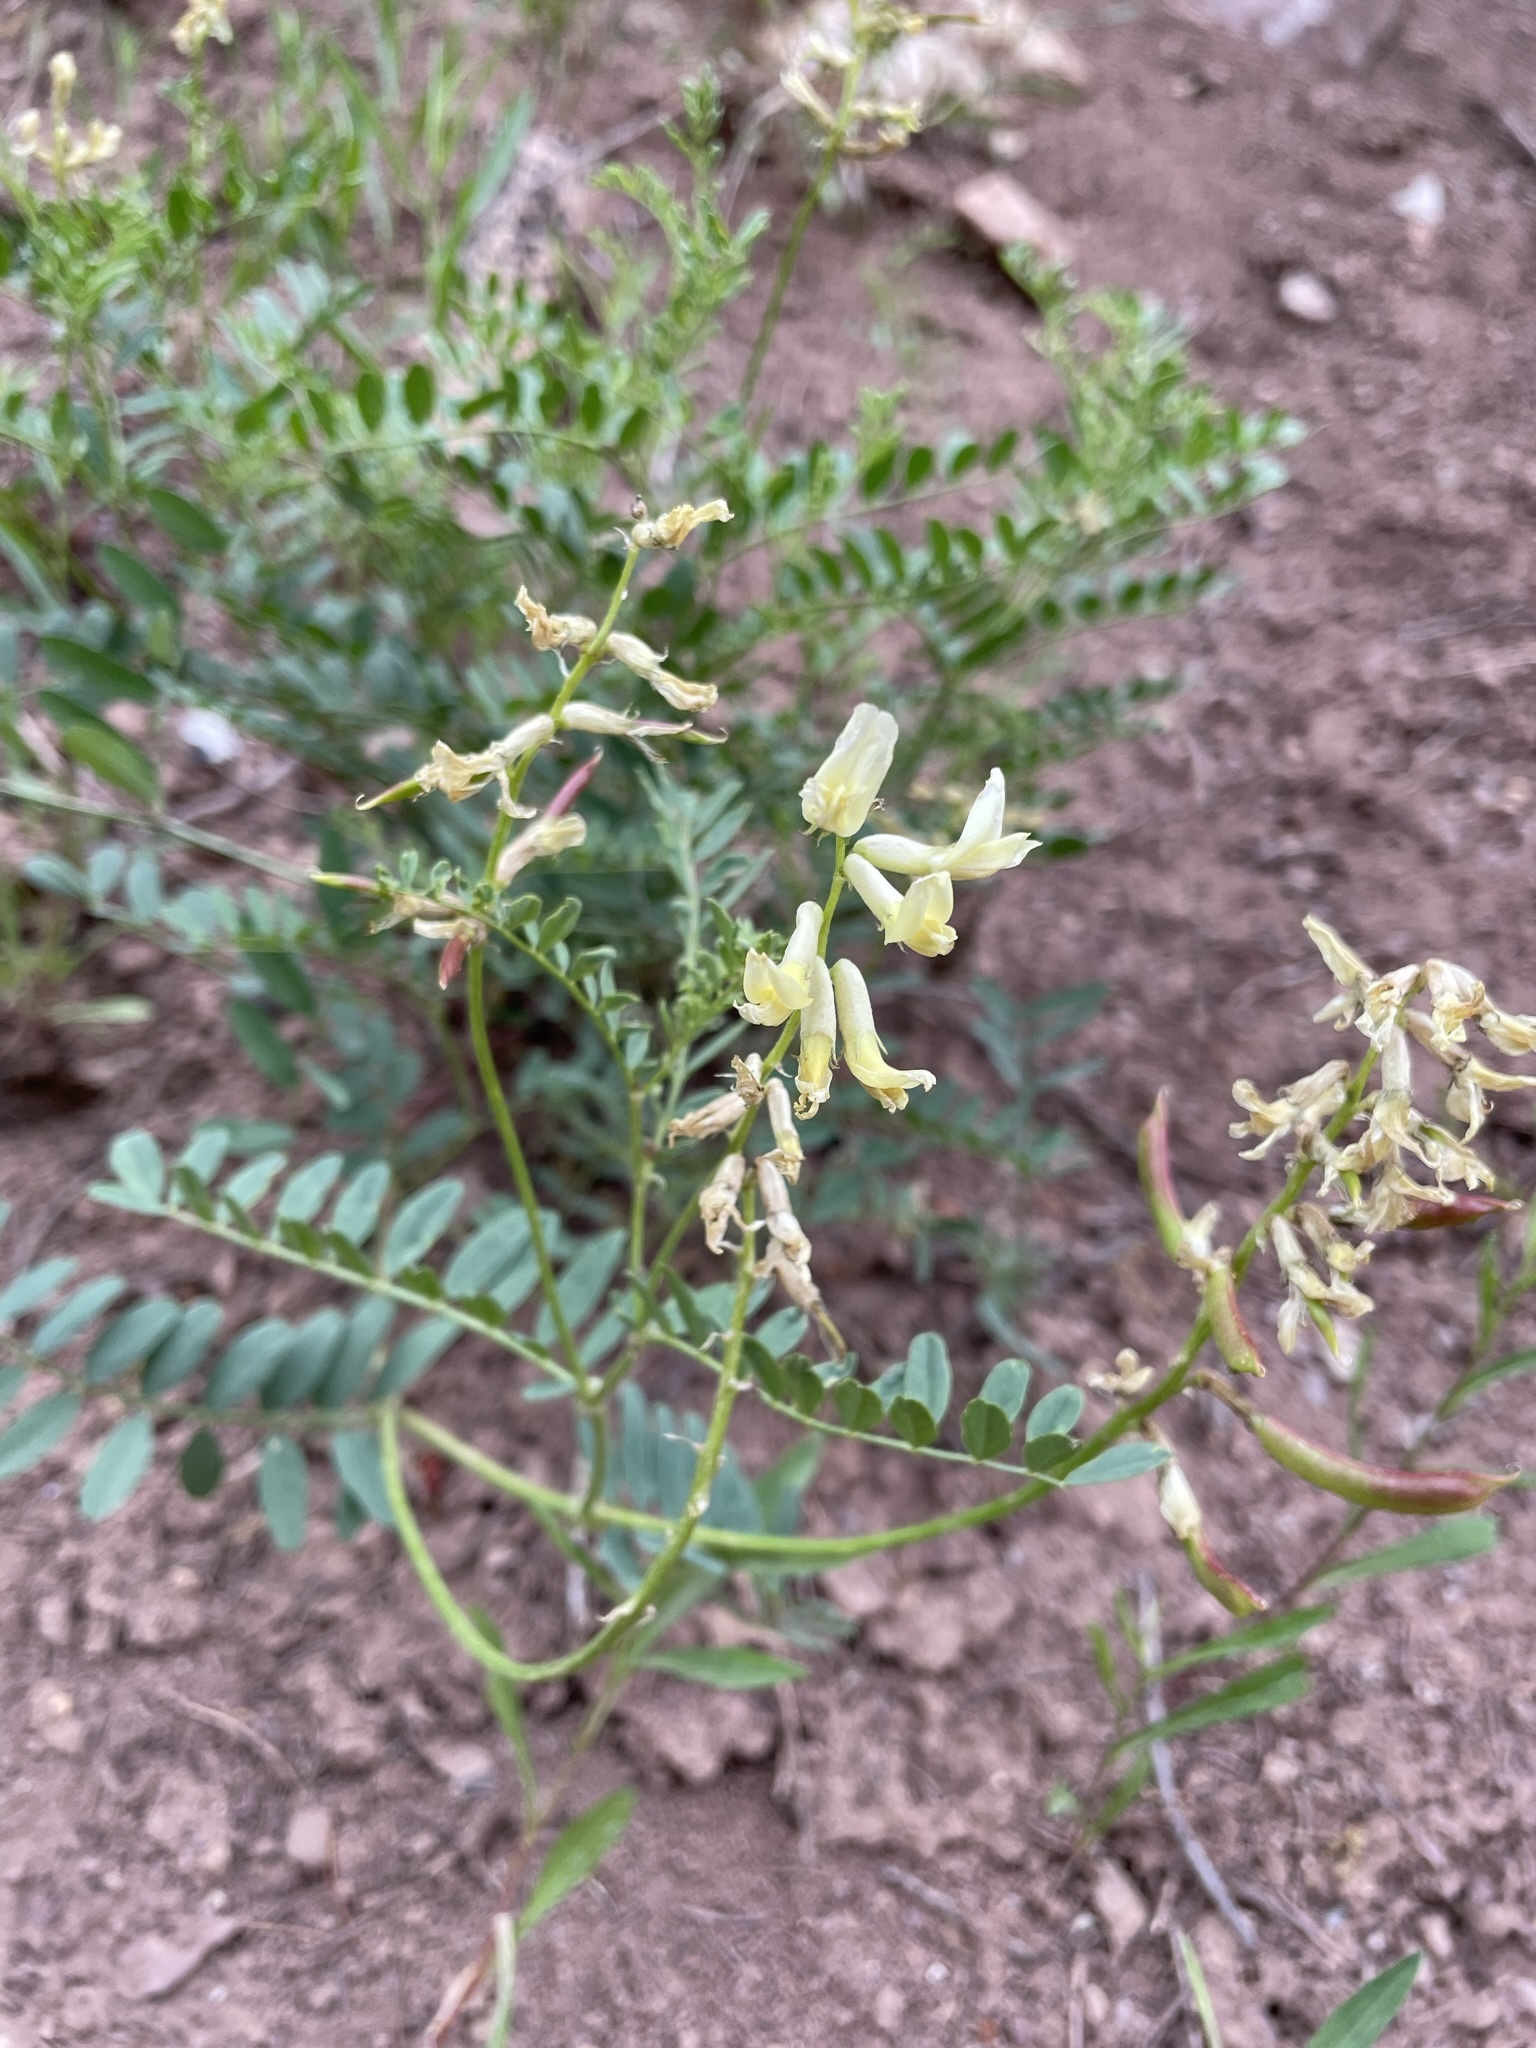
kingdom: Plantae
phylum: Tracheophyta
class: Magnoliopsida
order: Fabales
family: Fabaceae
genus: Astragalus
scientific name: Astragalus scopulorum
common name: Rocky mountain milk-vetch
